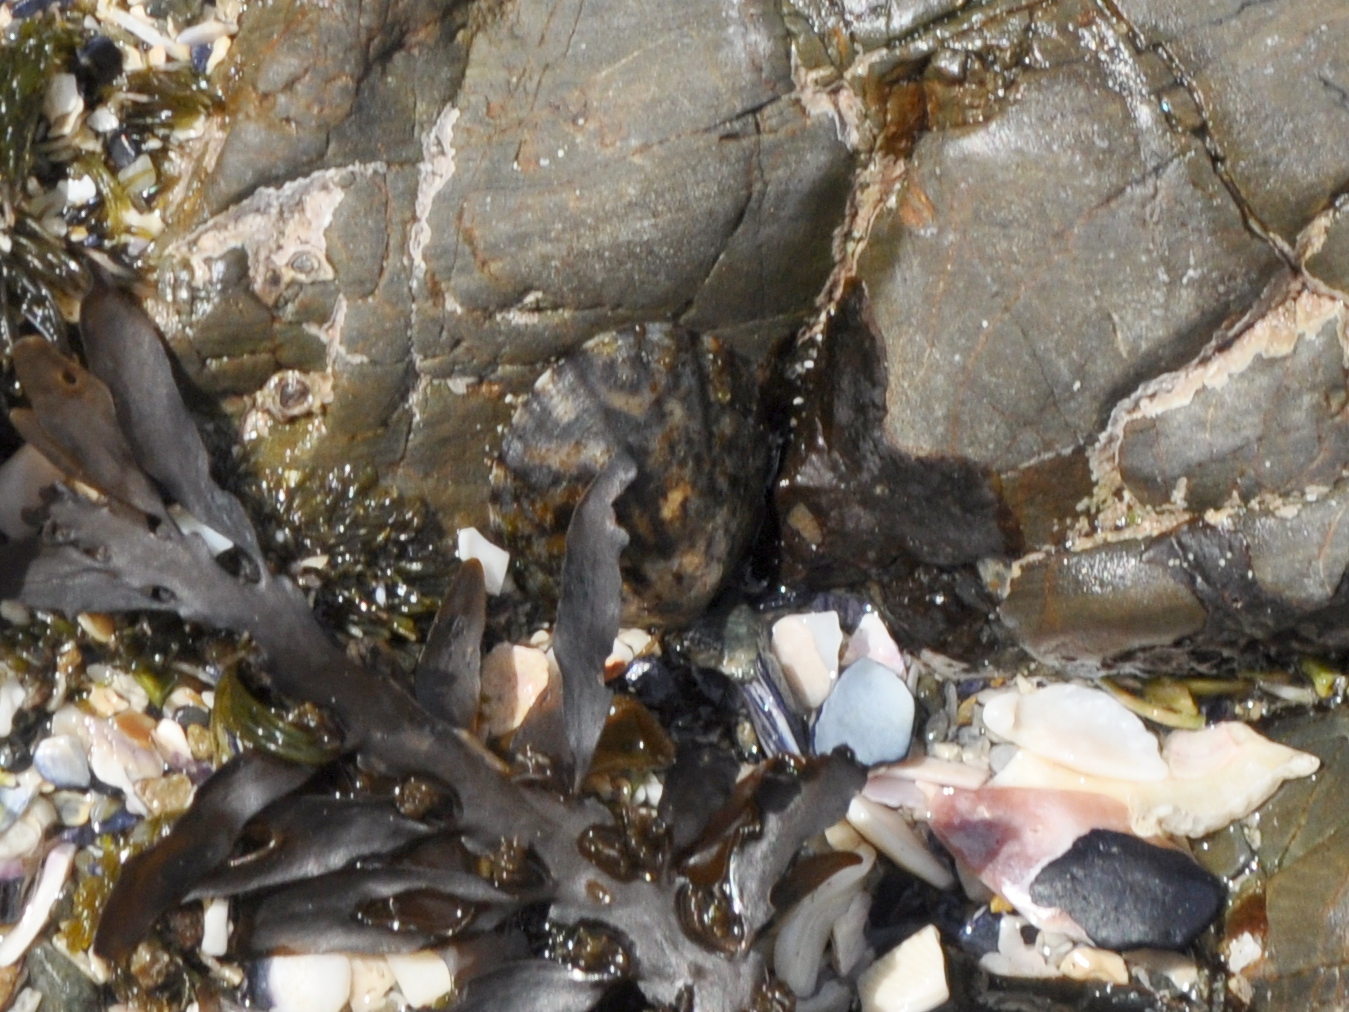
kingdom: Chromista
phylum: Ochrophyta
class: Phaeophyceae
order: Fucales
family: Sargassaceae
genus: Carpophyllum
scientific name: Carpophyllum maschalocarpum
